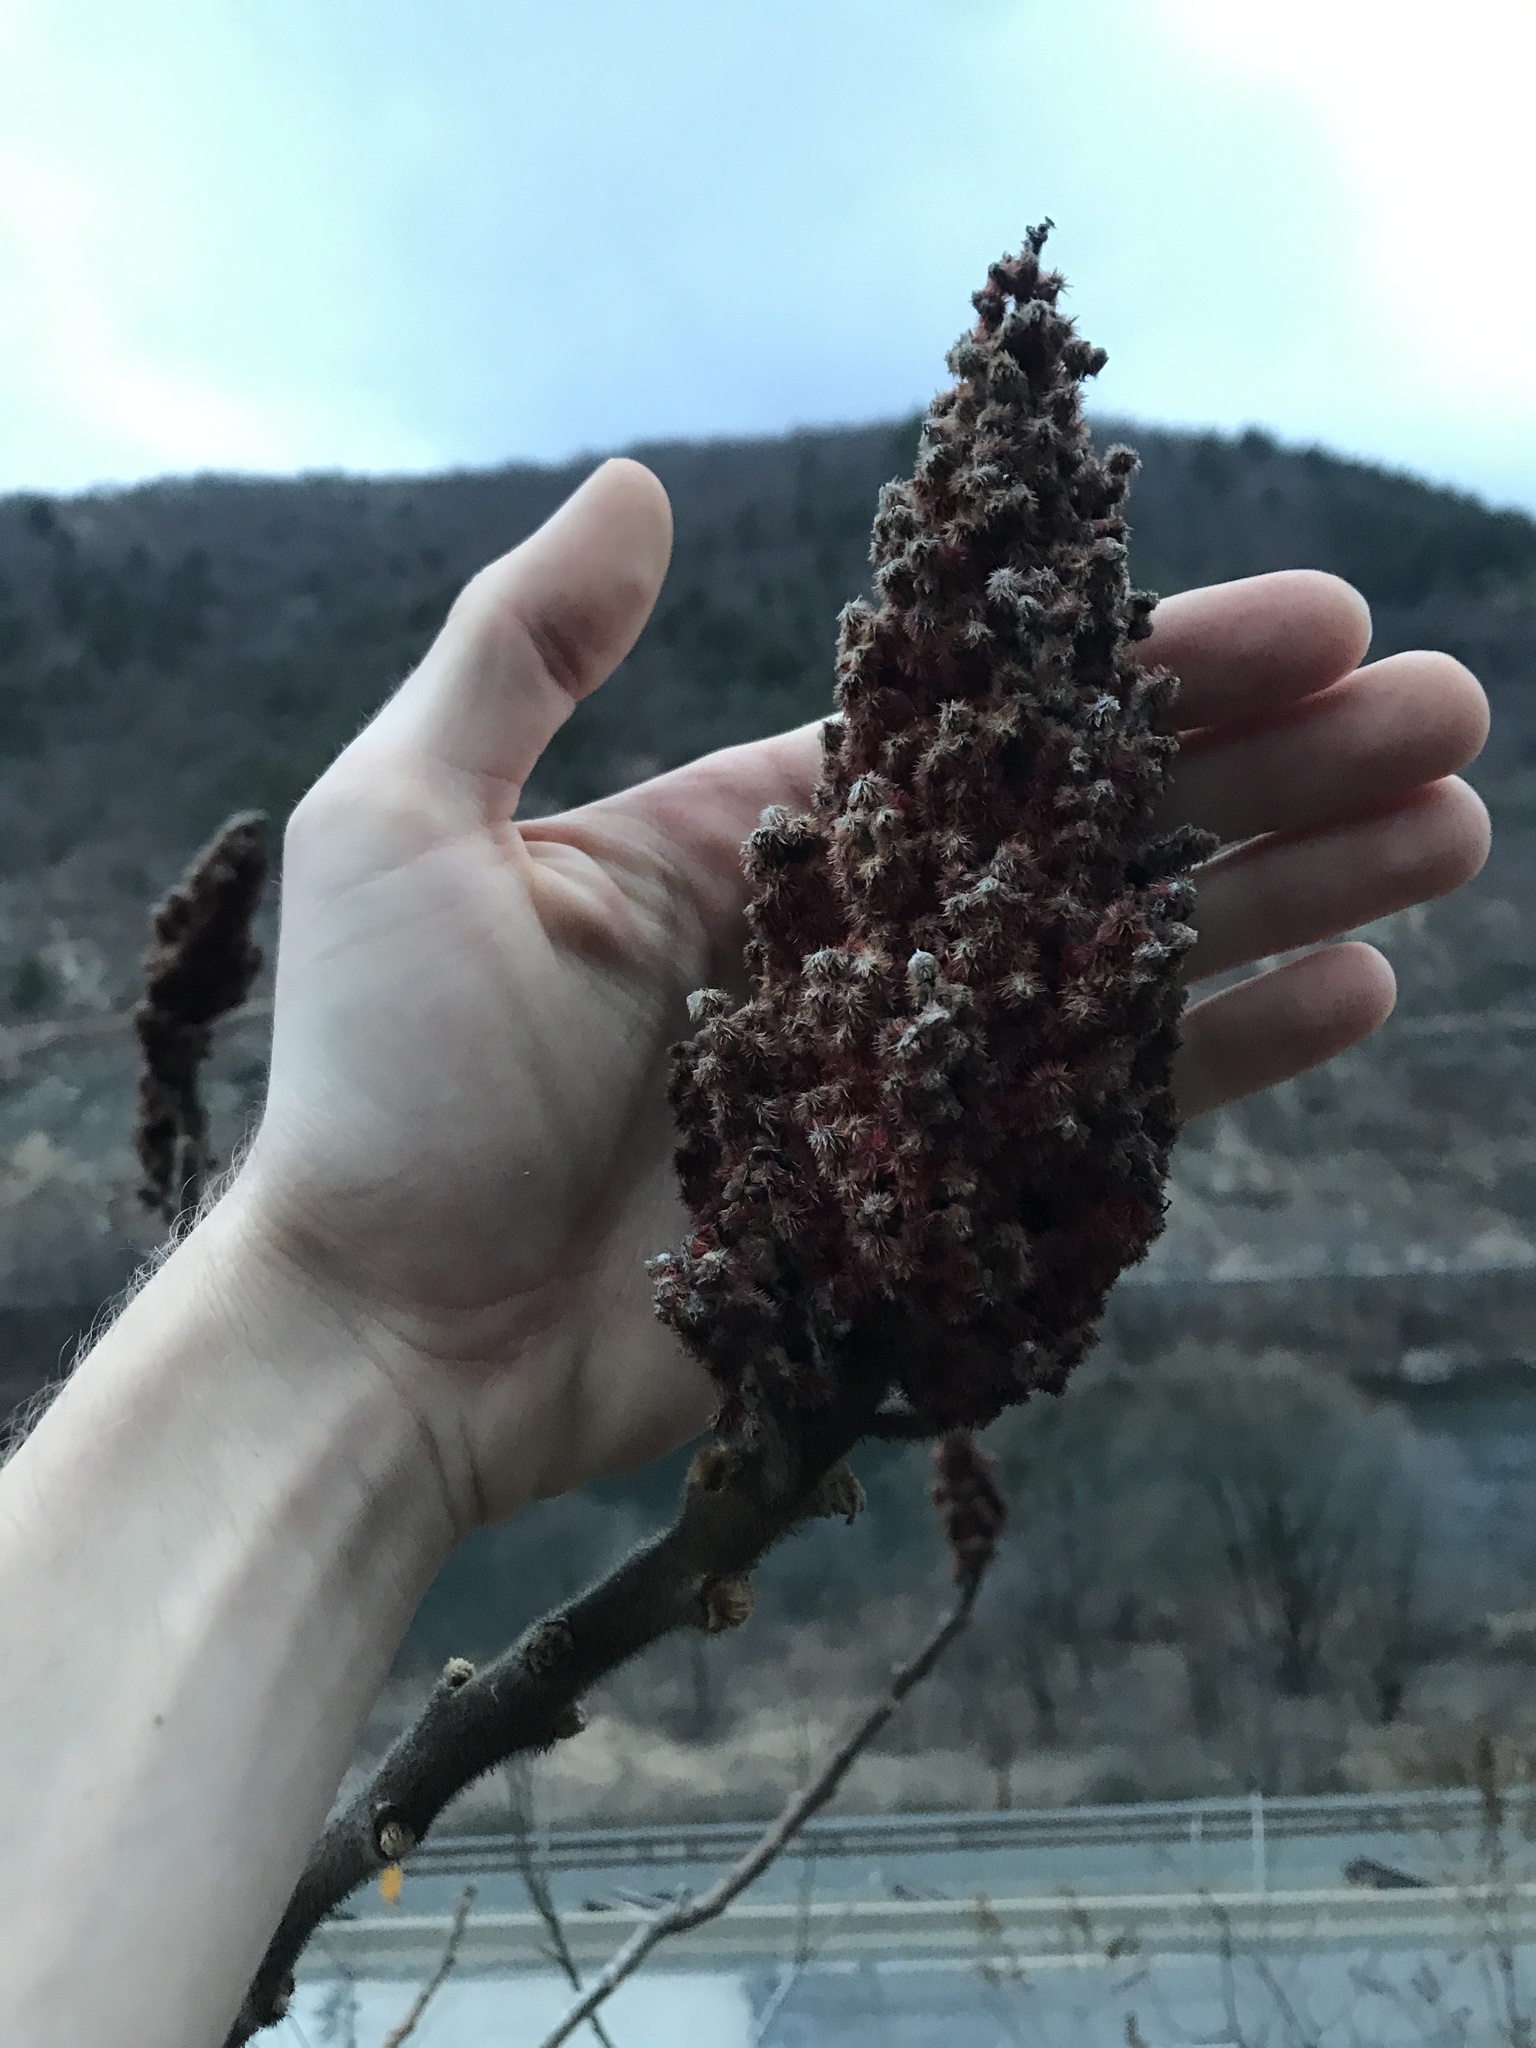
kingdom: Plantae
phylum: Tracheophyta
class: Magnoliopsida
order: Sapindales
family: Anacardiaceae
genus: Rhus
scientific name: Rhus typhina
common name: Staghorn sumac
